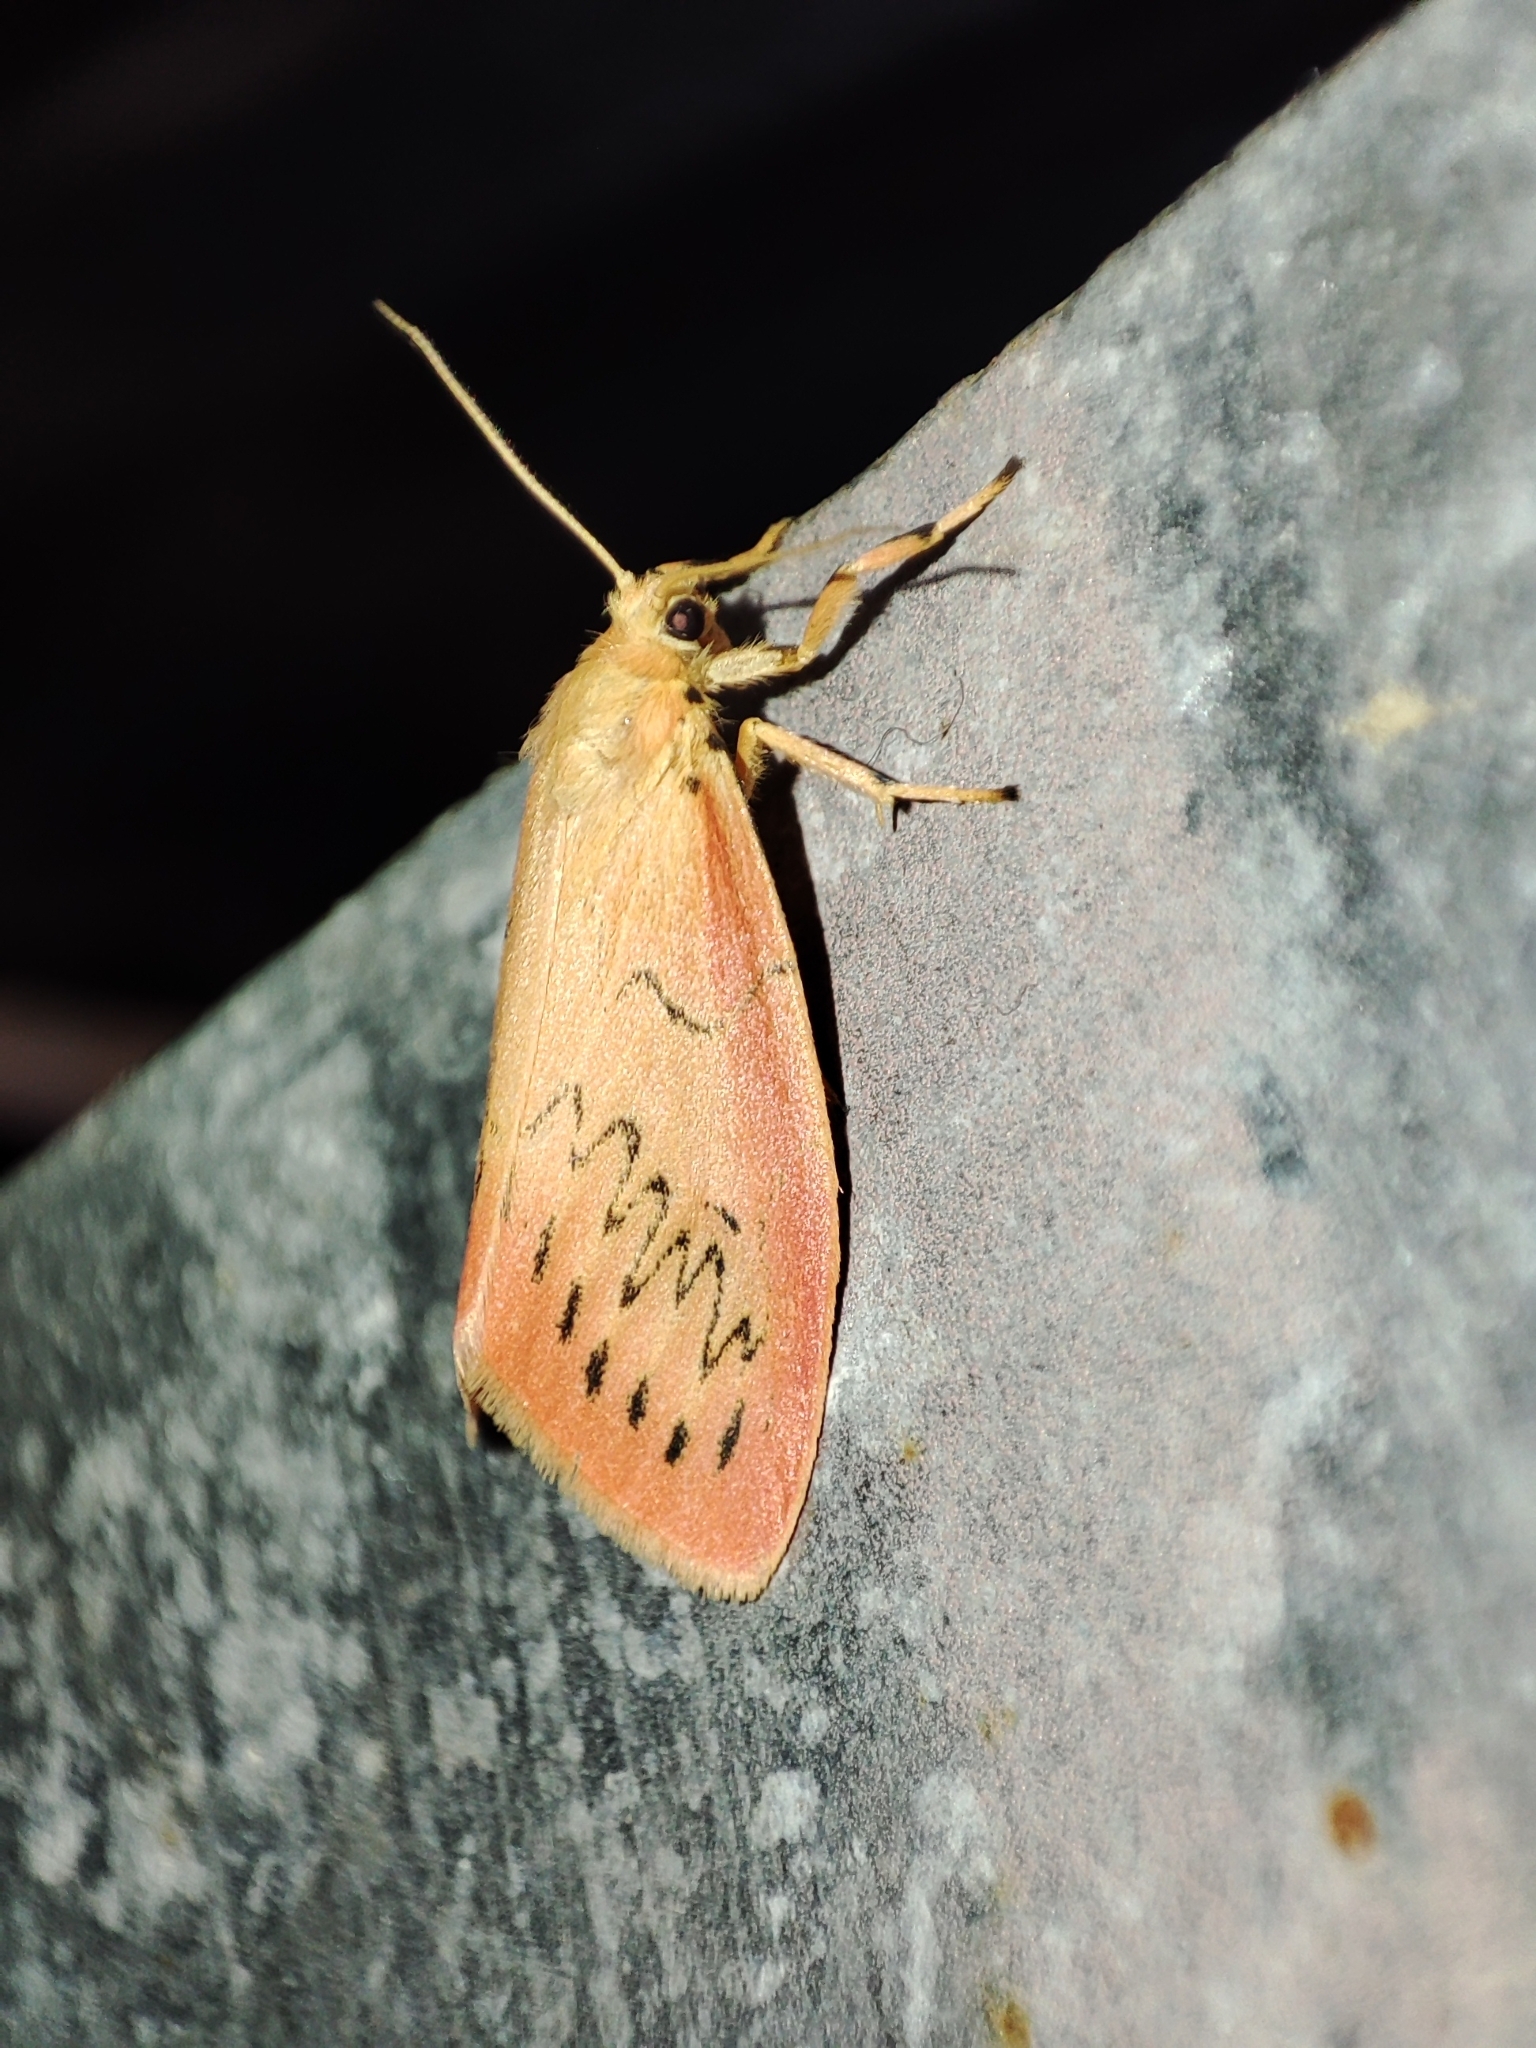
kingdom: Animalia
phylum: Arthropoda
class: Insecta
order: Lepidoptera
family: Erebidae
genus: Miltochrista
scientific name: Miltochrista miniata
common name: Rosy footman
